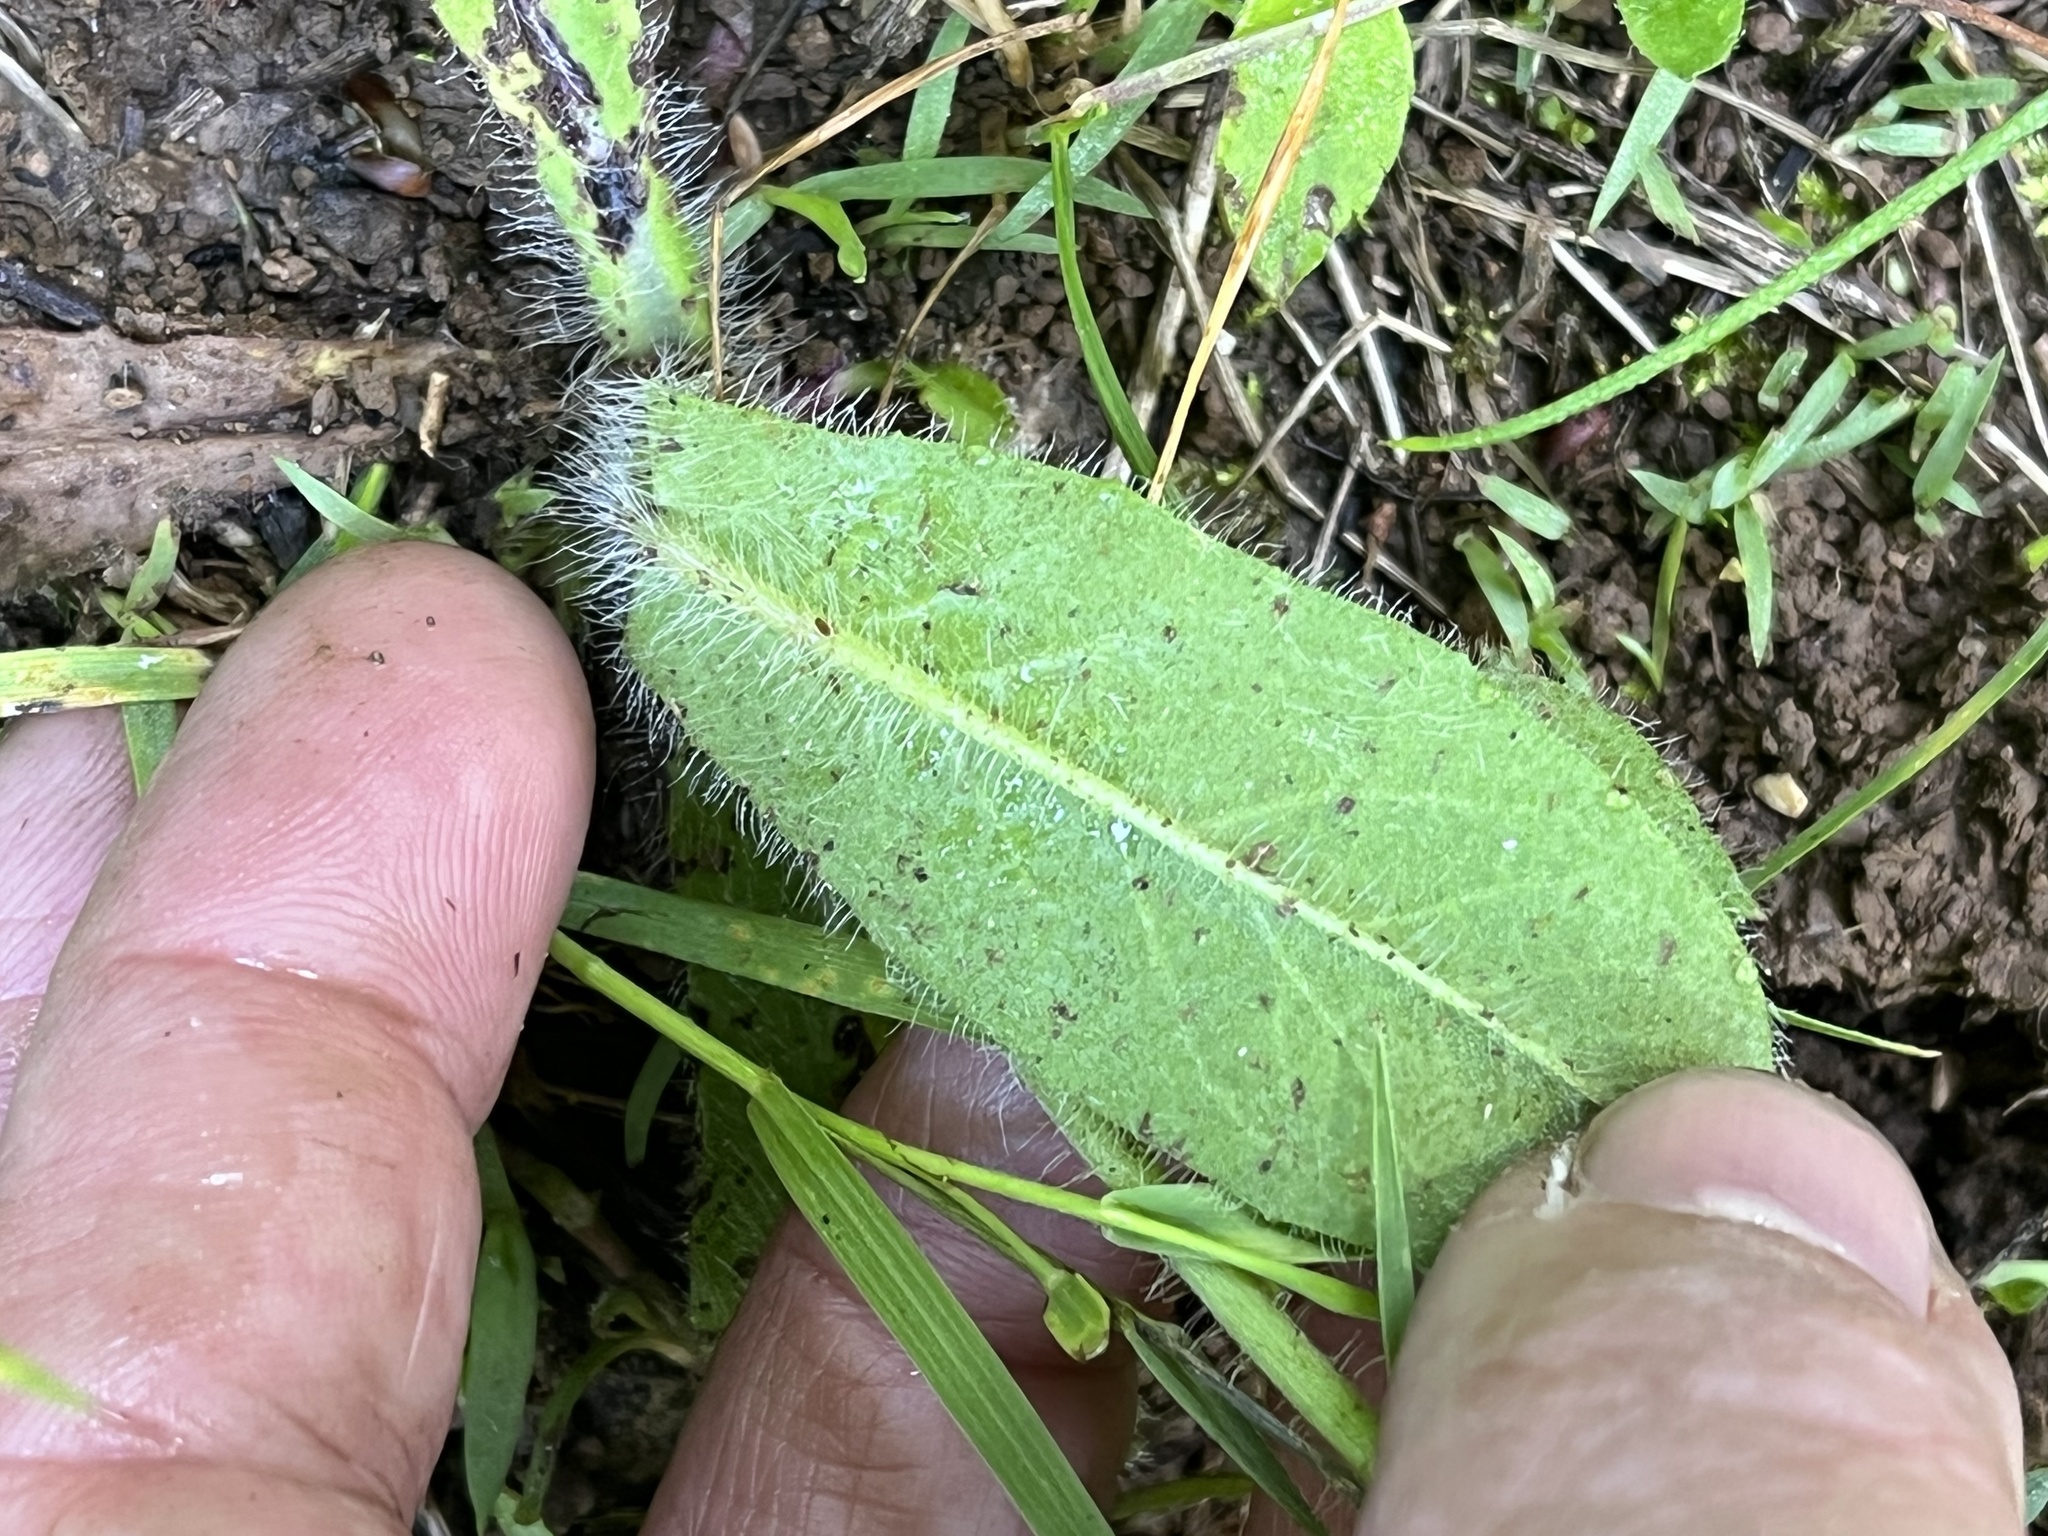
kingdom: Plantae
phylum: Tracheophyta
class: Magnoliopsida
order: Asterales
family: Asteraceae
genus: Pilosella
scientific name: Pilosella aurantiaca
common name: Fox-and-cubs
